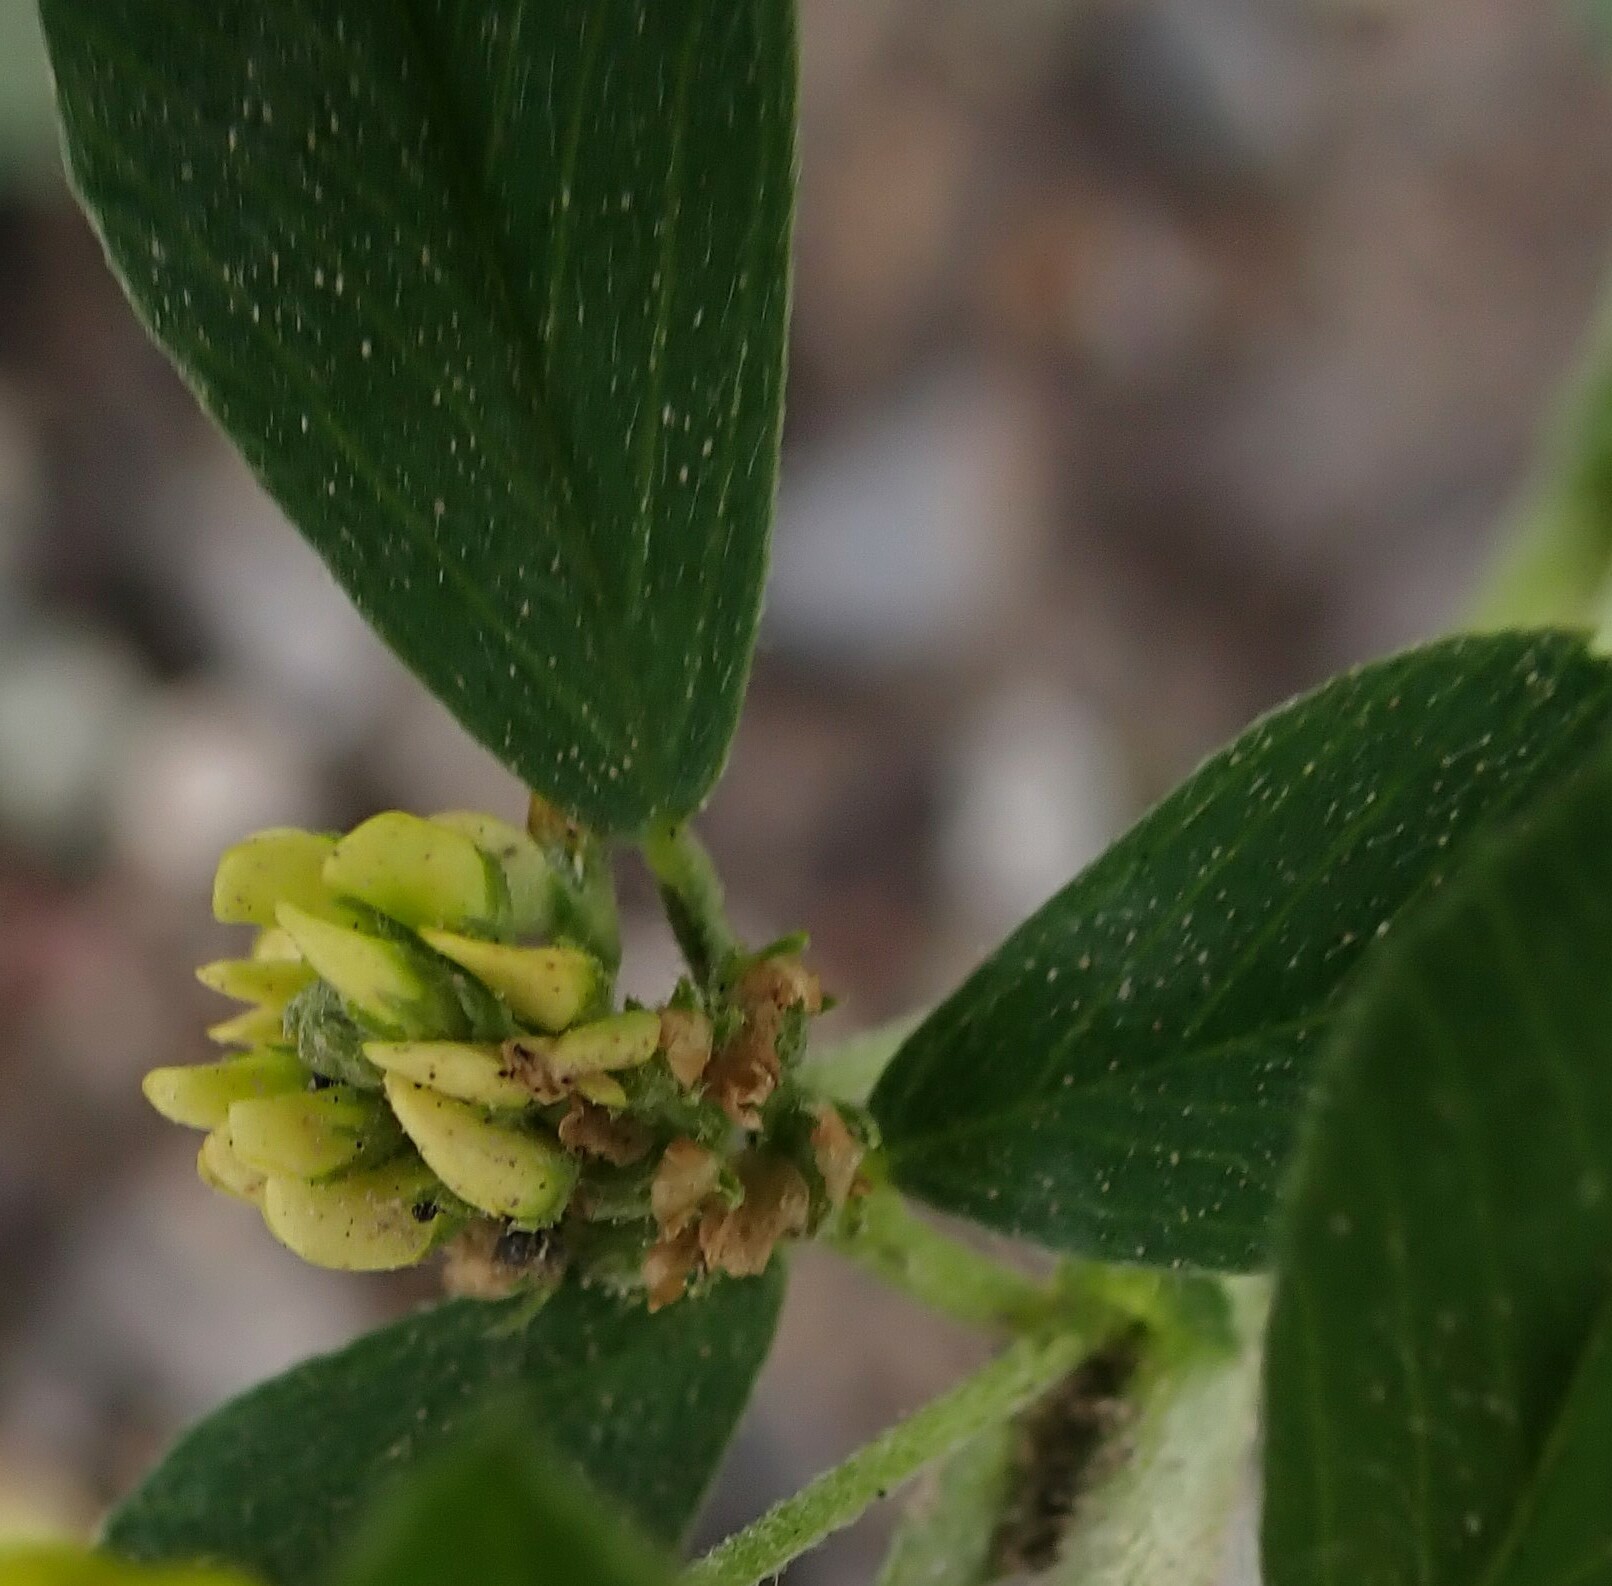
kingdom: Plantae
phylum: Tracheophyta
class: Magnoliopsida
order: Fabales
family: Fabaceae
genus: Medicago
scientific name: Medicago lupulina
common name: Black medick
